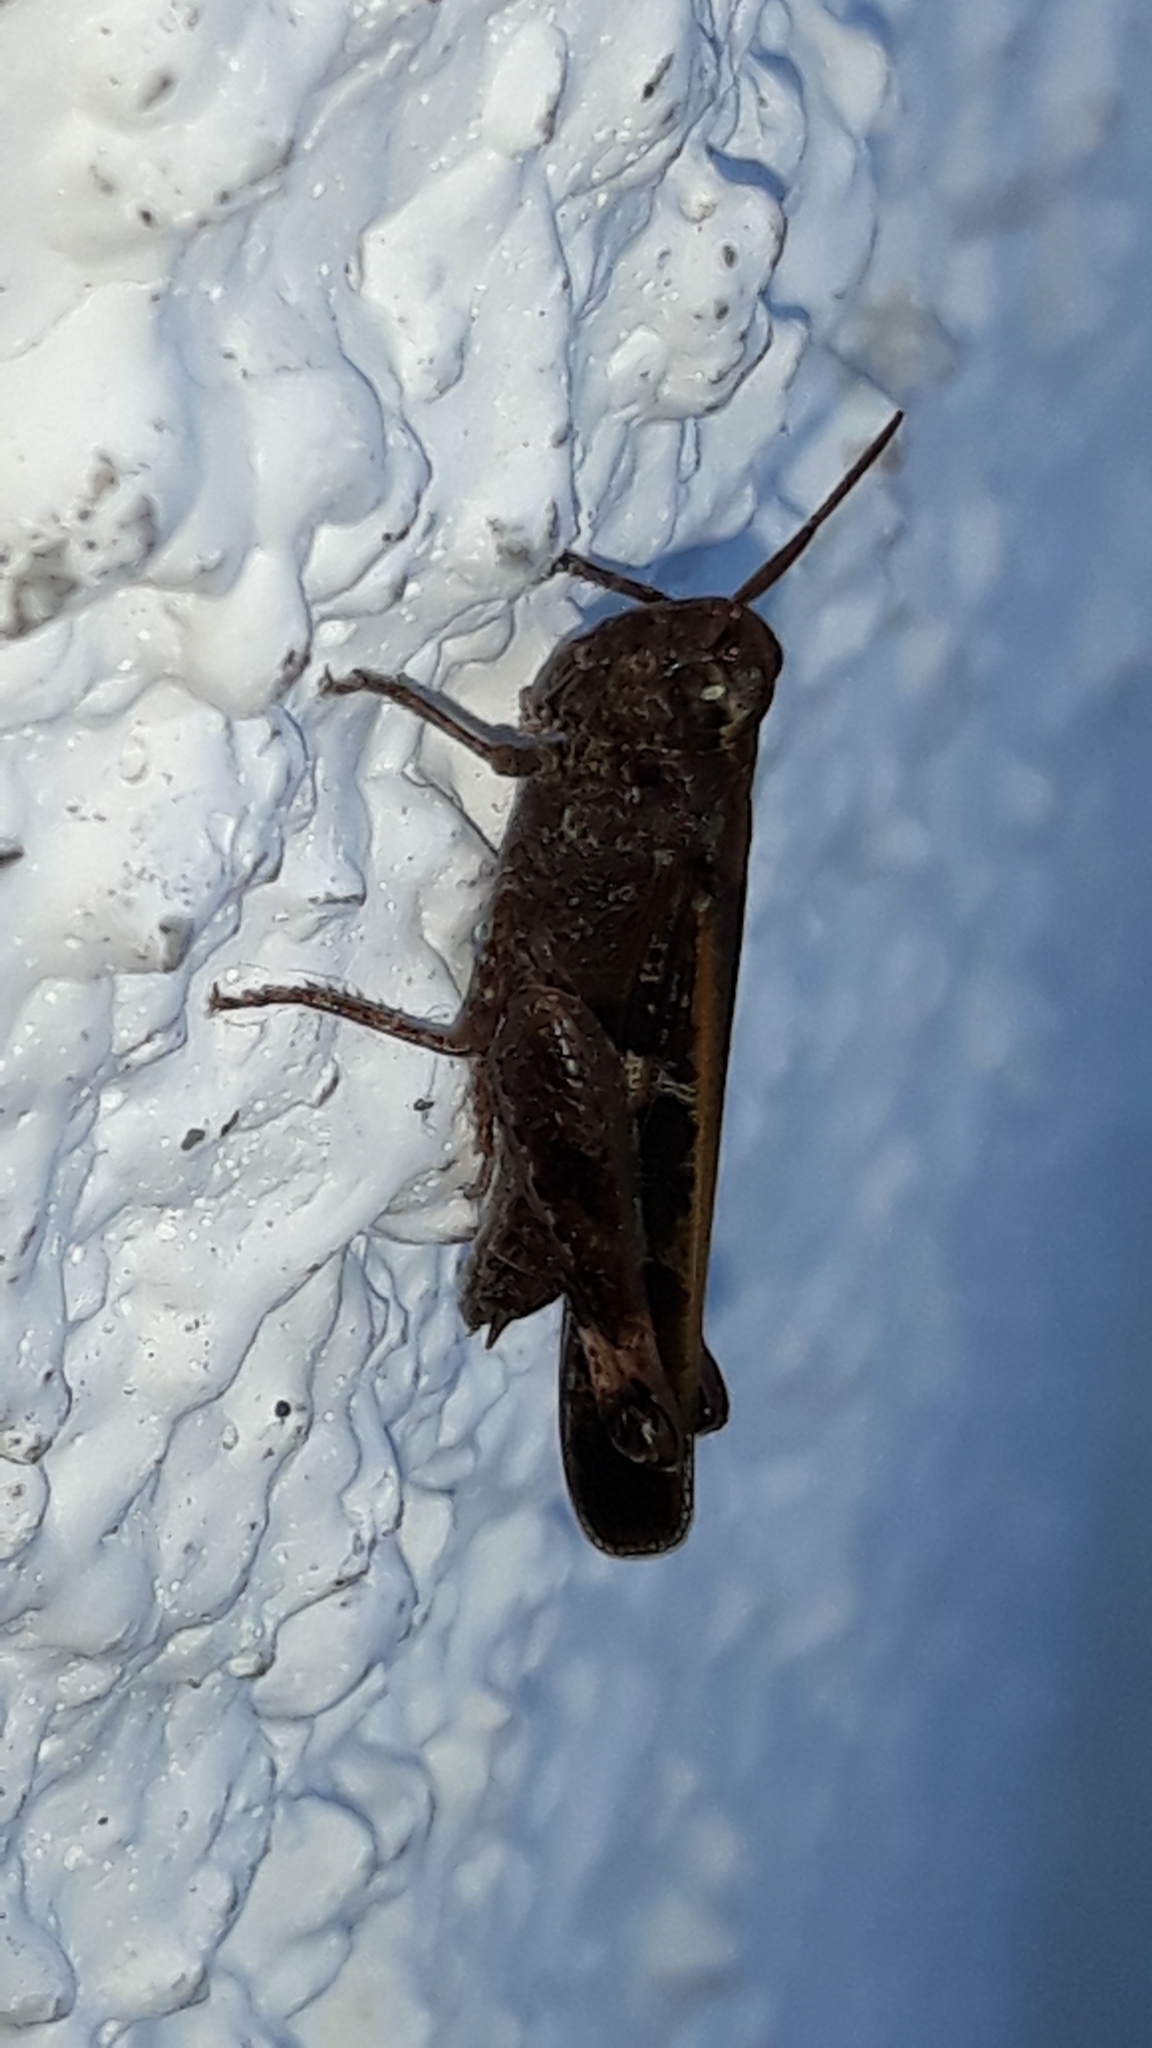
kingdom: Animalia
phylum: Arthropoda
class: Insecta
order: Orthoptera
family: Acrididae
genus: Aiolopus
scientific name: Aiolopus strepens
